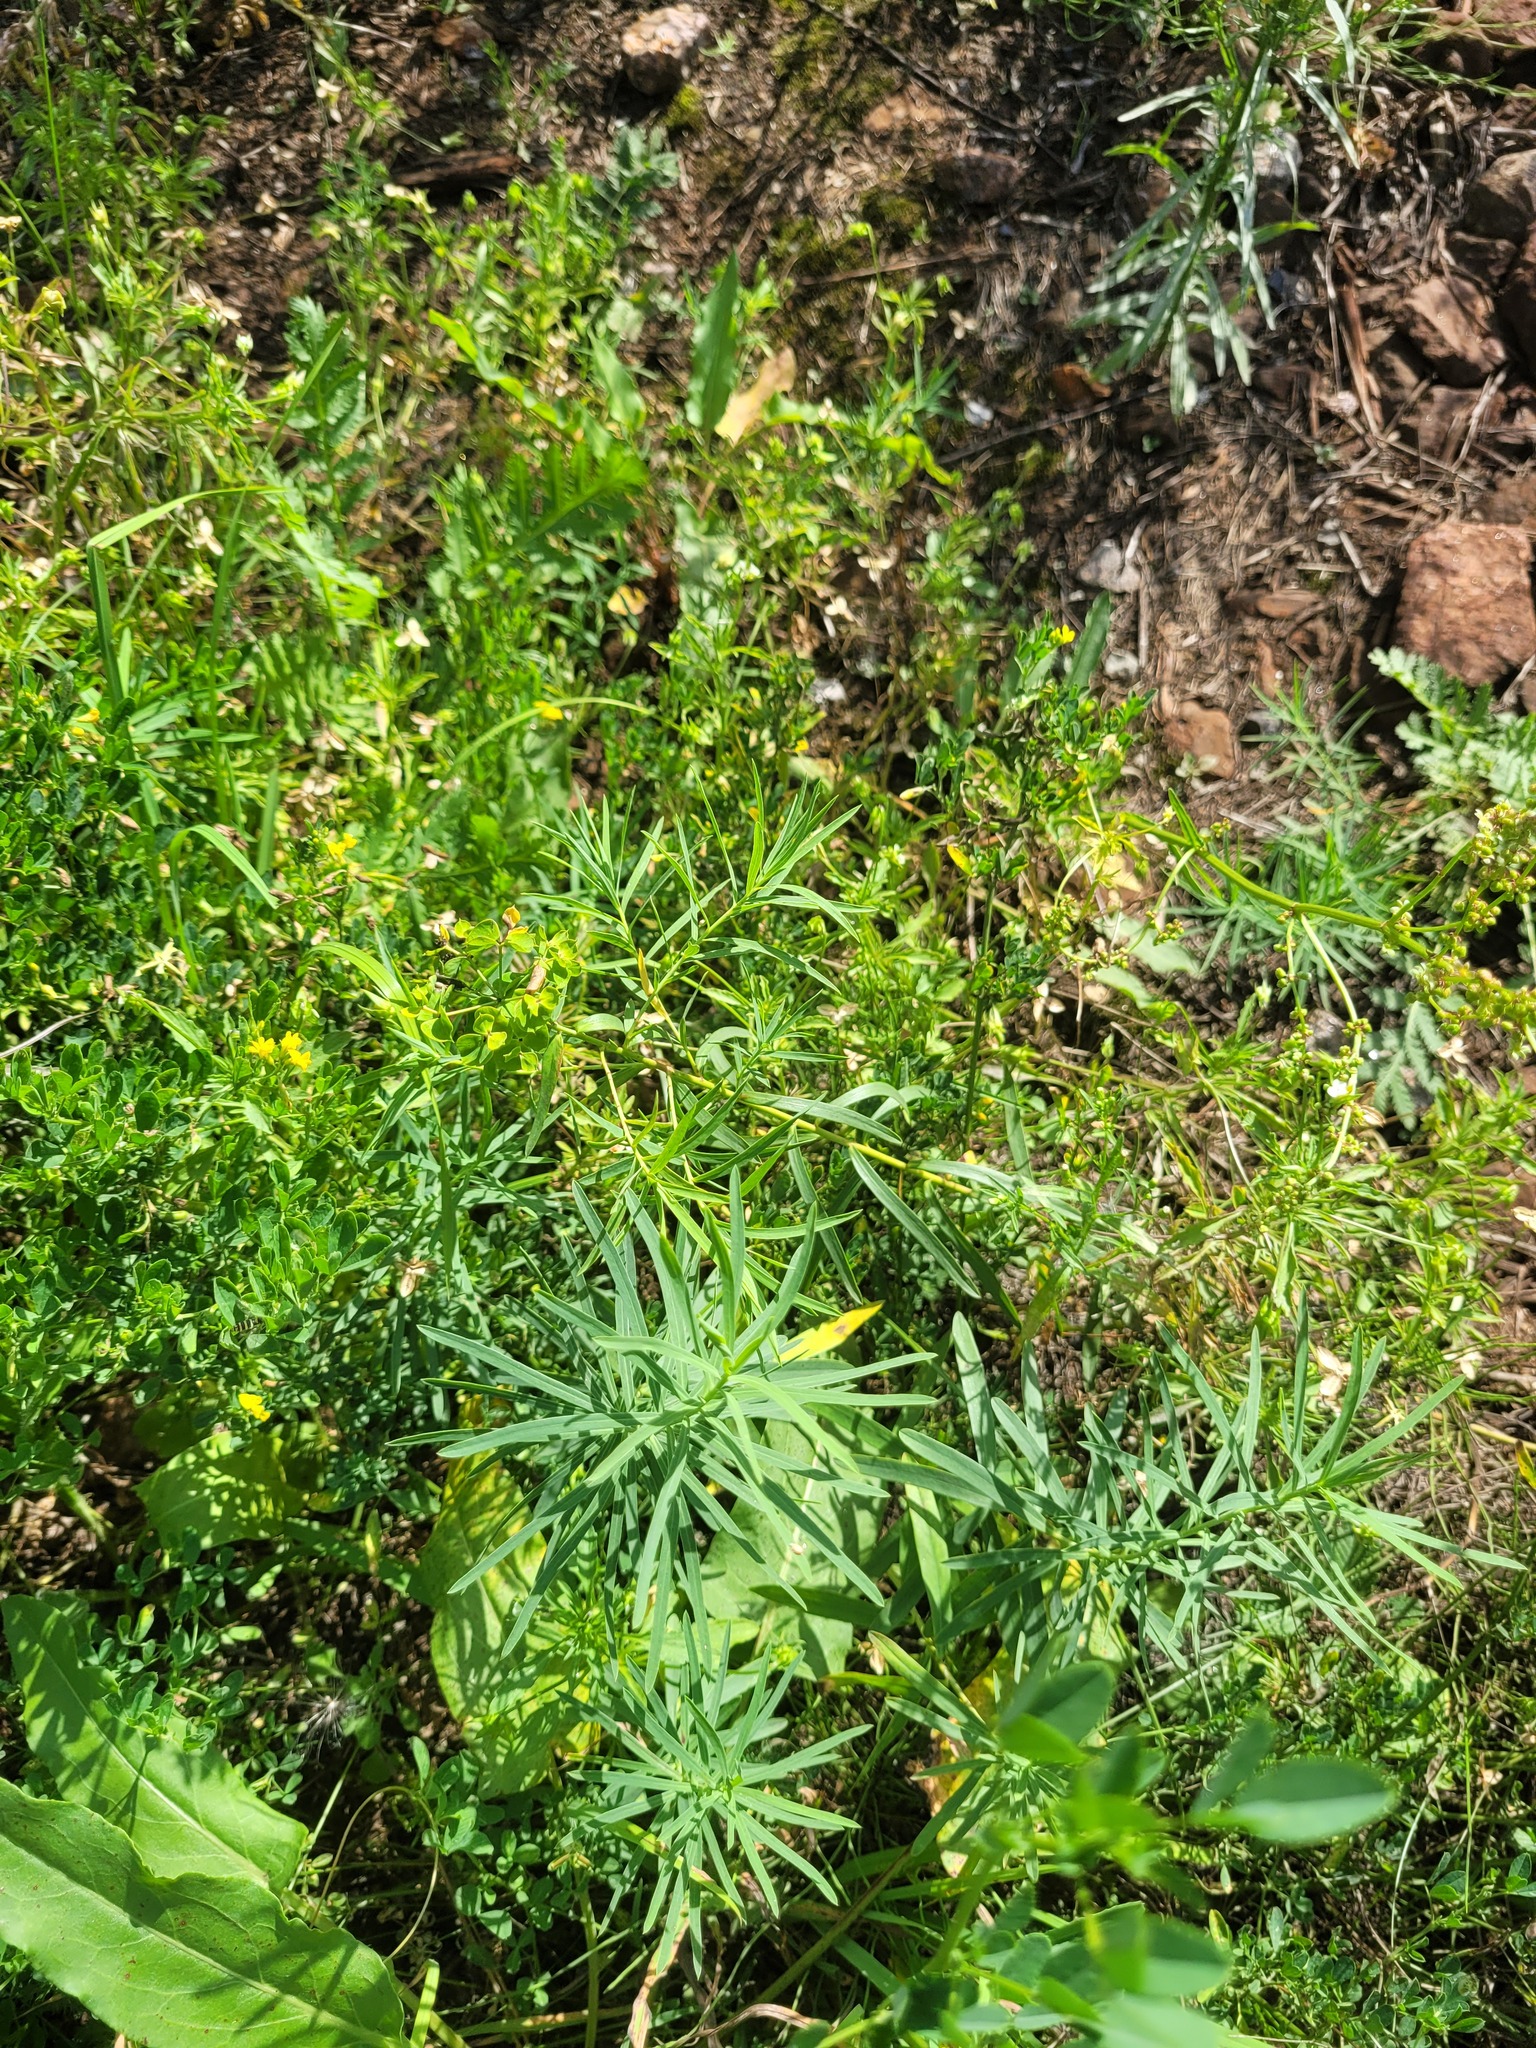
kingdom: Plantae
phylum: Tracheophyta
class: Magnoliopsida
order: Malpighiales
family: Euphorbiaceae
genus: Euphorbia
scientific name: Euphorbia virgata
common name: Leafy spurge
